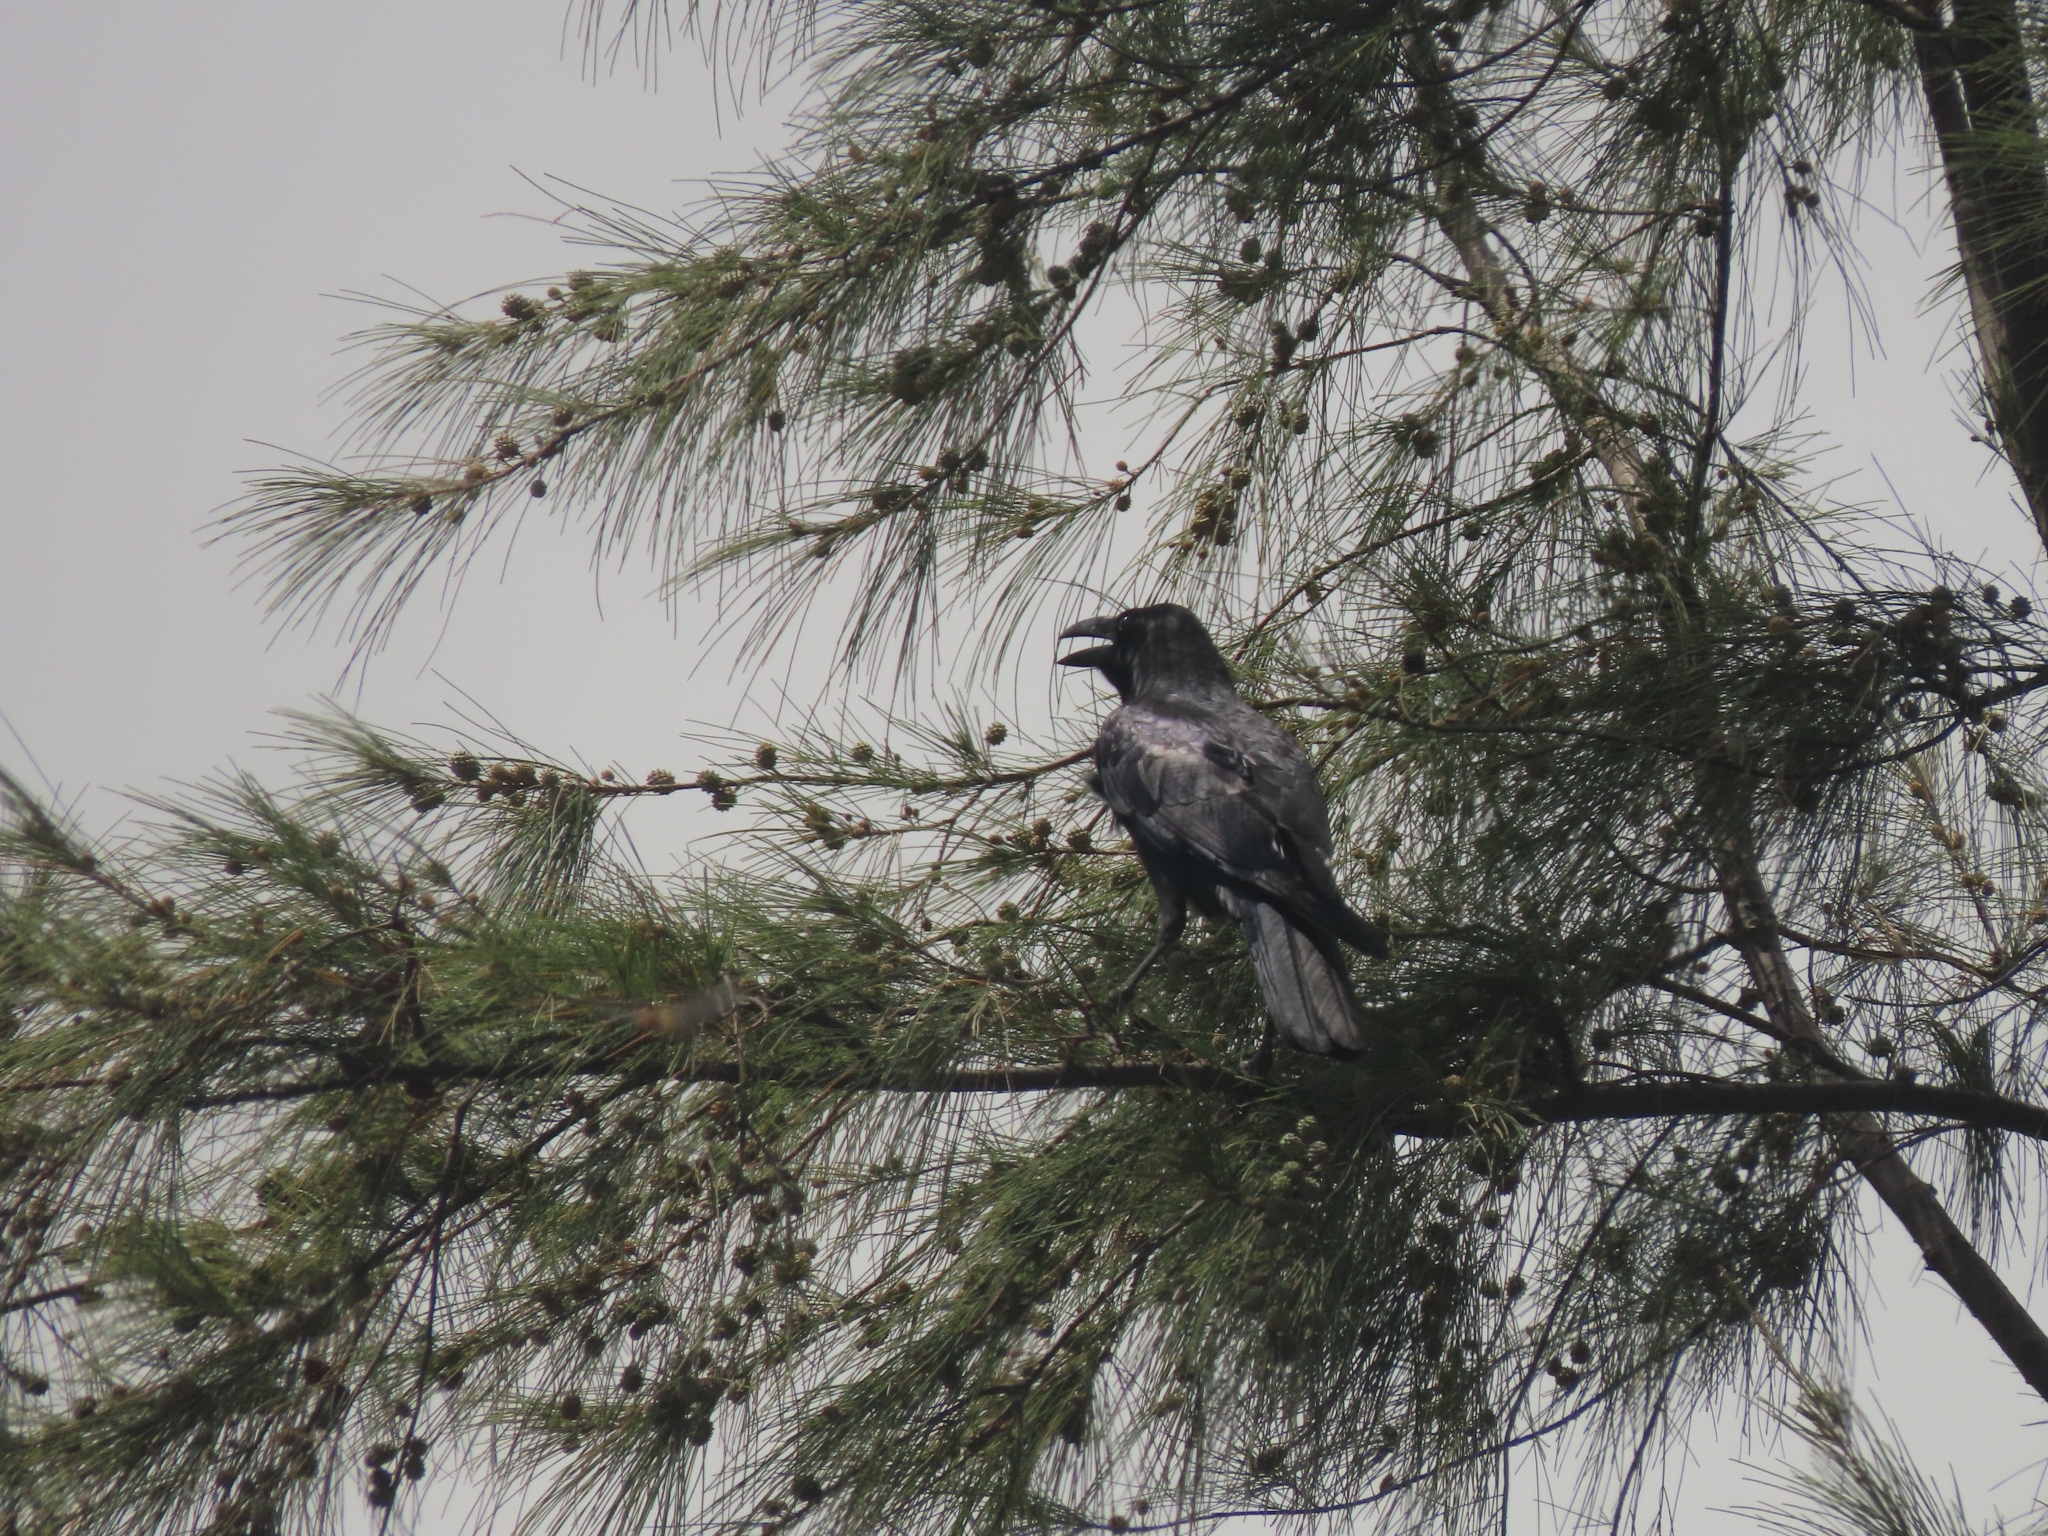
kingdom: Animalia
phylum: Chordata
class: Aves
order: Passeriformes
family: Corvidae
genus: Corvus
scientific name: Corvus macrorhynchos
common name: Large-billed crow
